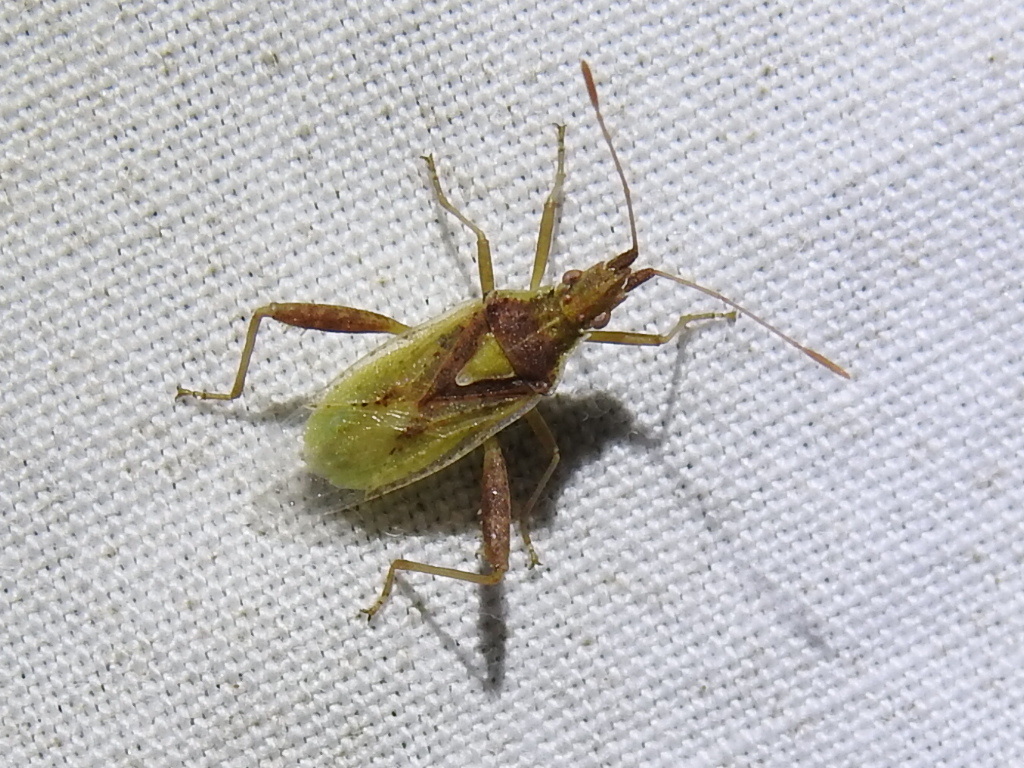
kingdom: Animalia
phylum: Arthropoda
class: Insecta
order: Hemiptera
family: Rhopalidae
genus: Harmostes
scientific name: Harmostes reflexulus
